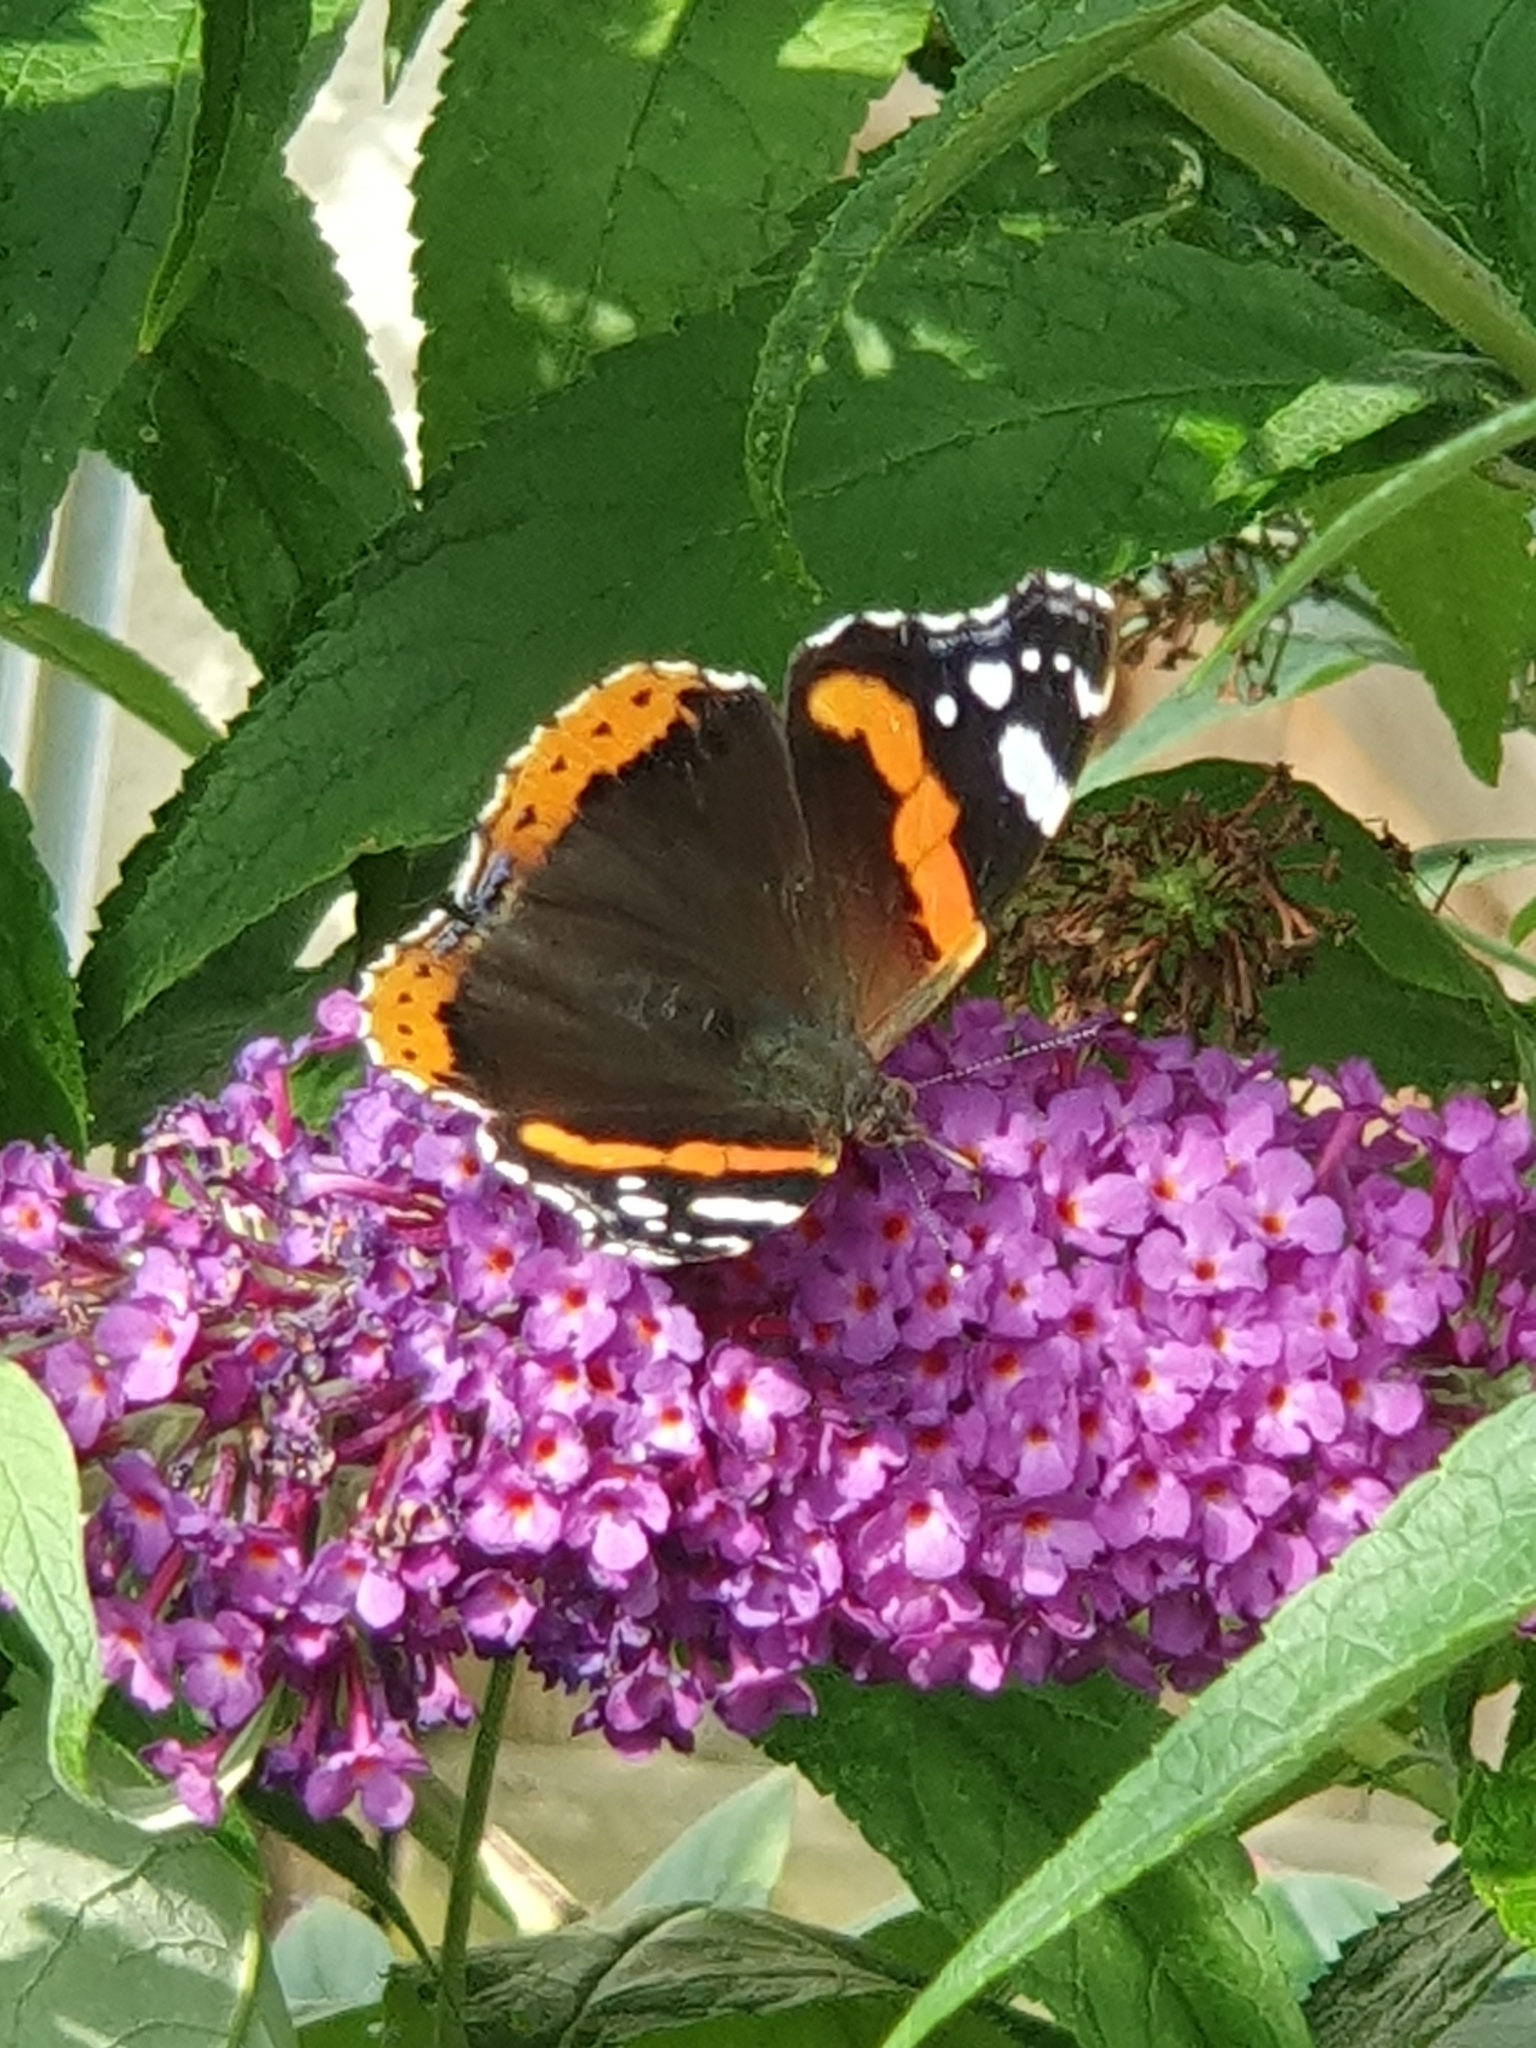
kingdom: Animalia
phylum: Arthropoda
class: Insecta
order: Lepidoptera
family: Nymphalidae
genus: Vanessa
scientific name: Vanessa atalanta
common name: Red admiral
